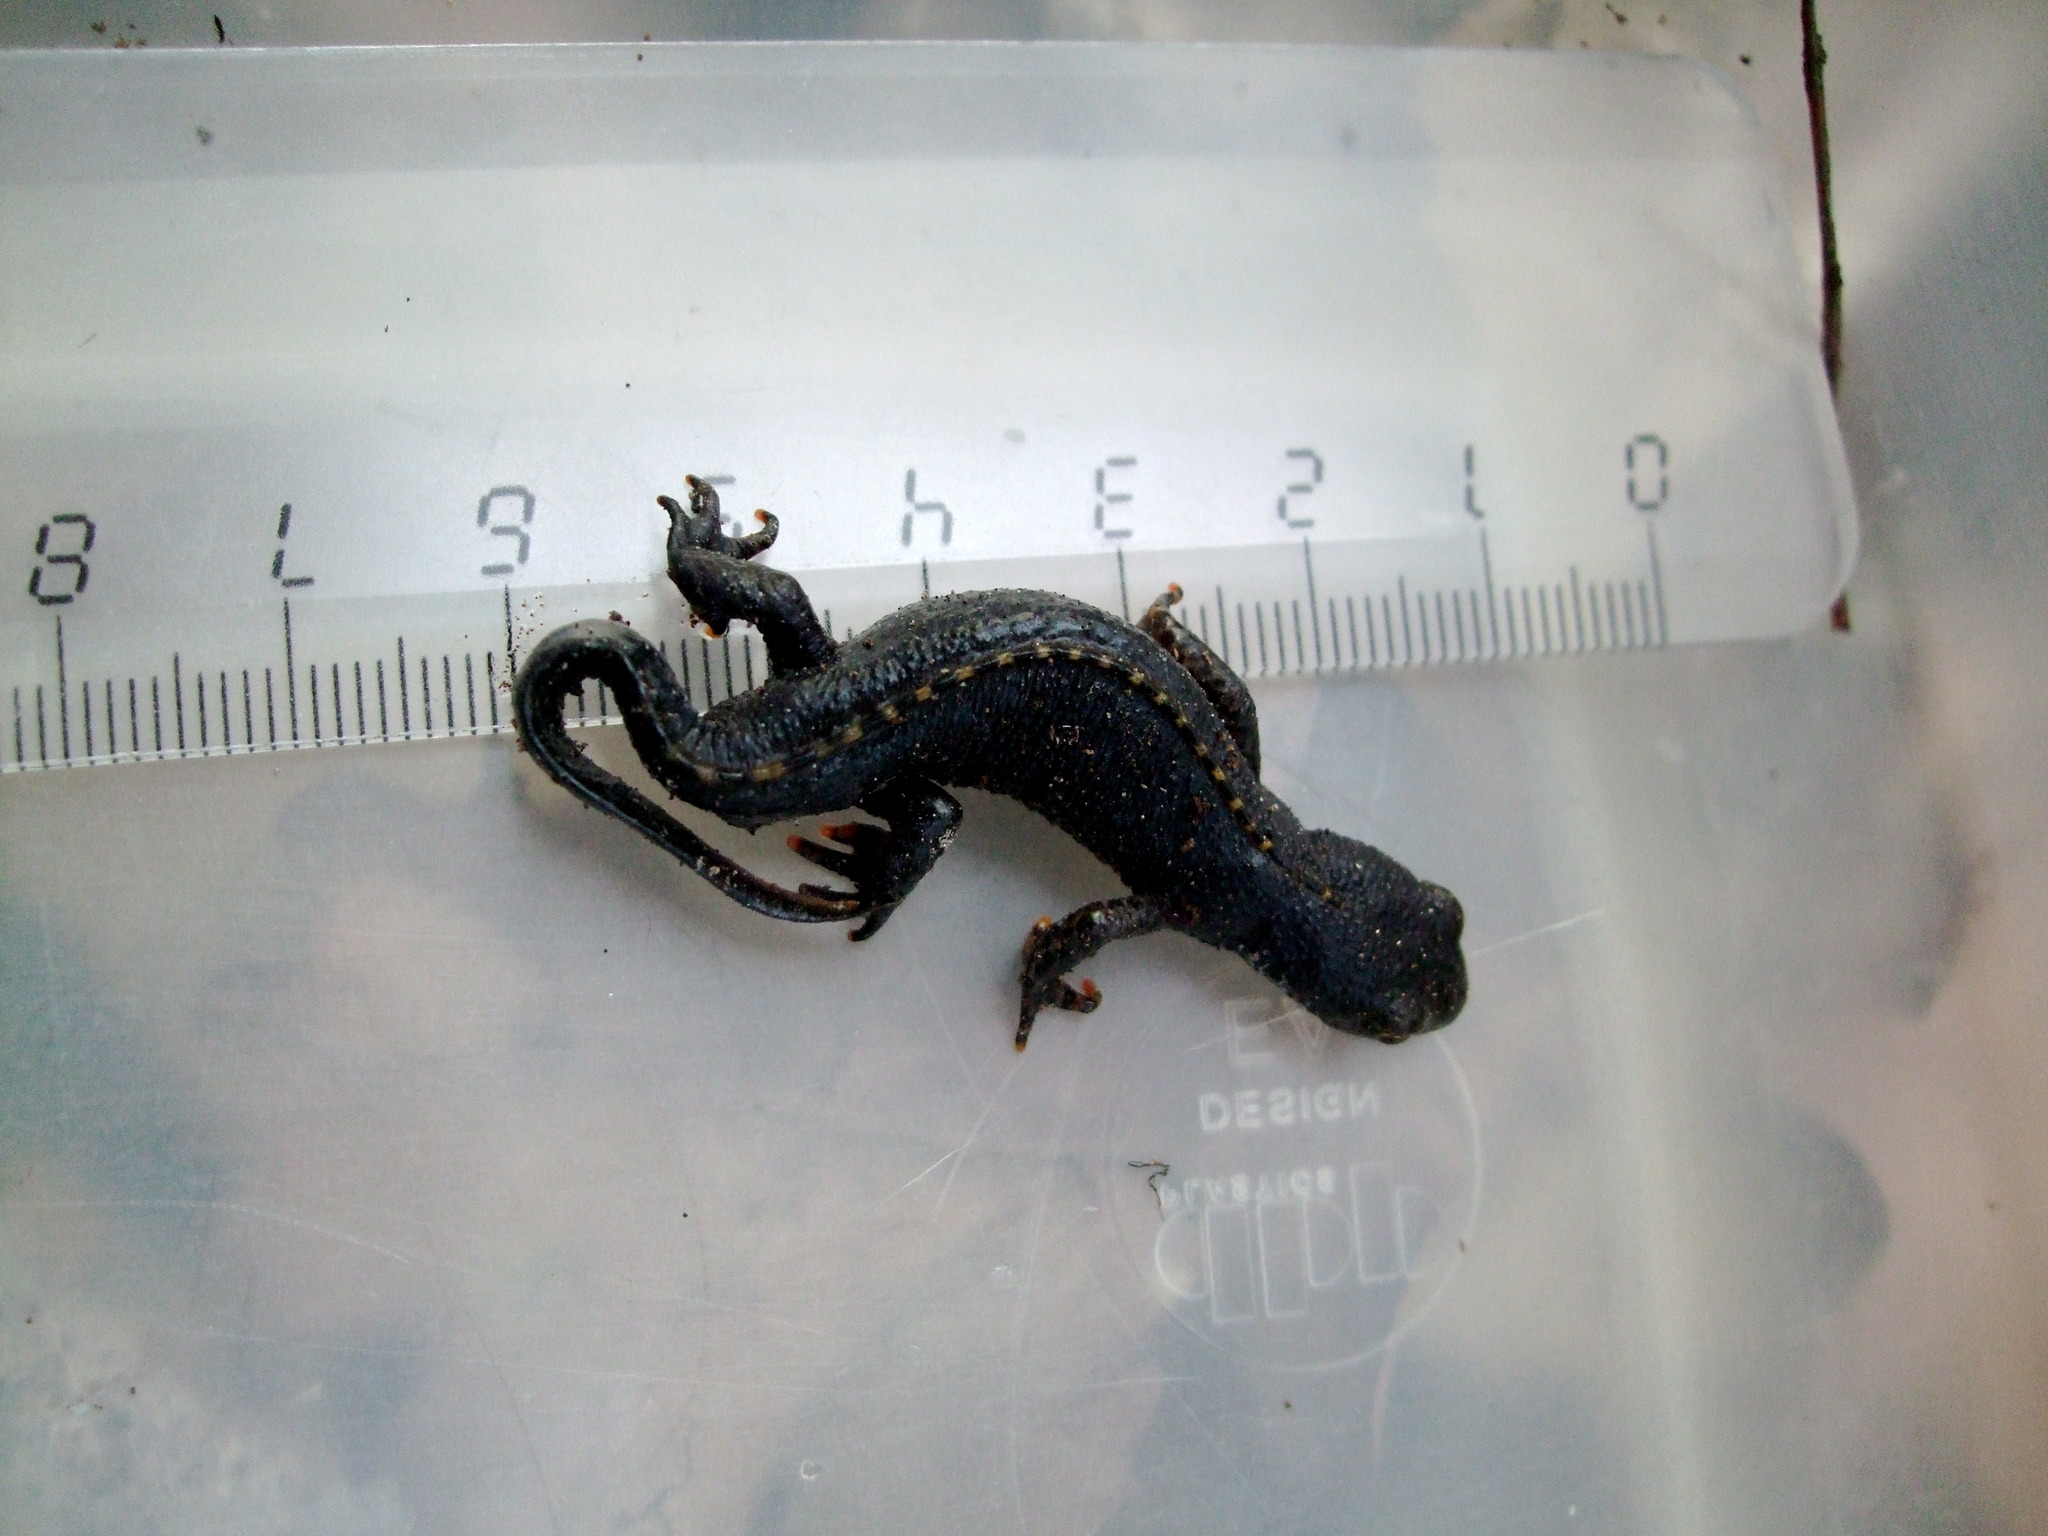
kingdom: Animalia
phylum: Chordata
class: Amphibia
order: Caudata
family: Salamandridae
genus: Ichthyosaura
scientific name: Ichthyosaura alpestris
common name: Alpine newt
